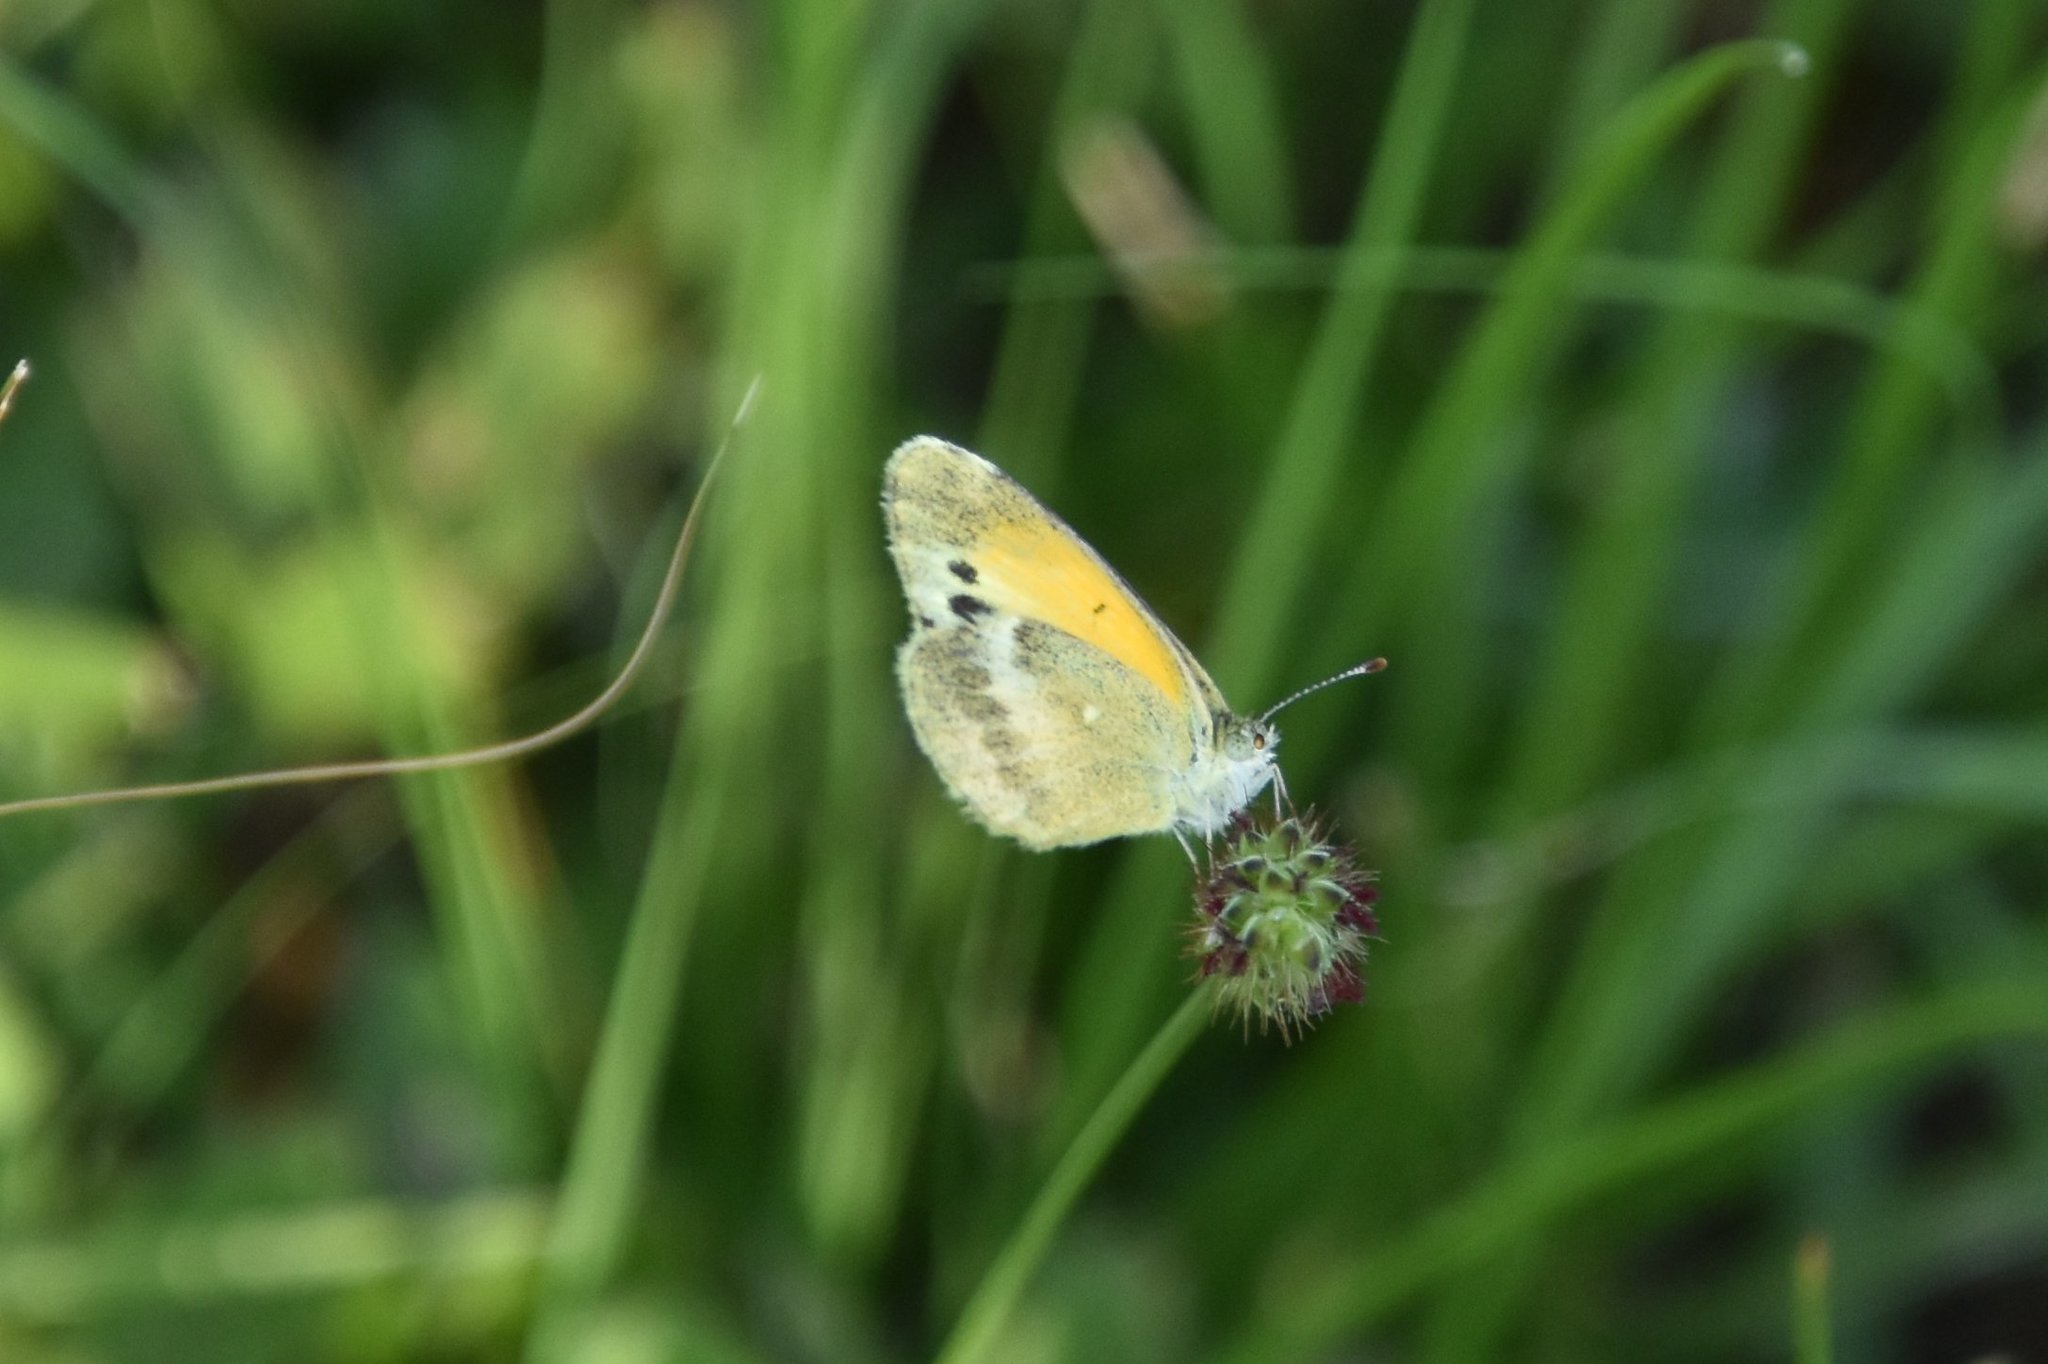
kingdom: Animalia
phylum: Arthropoda
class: Insecta
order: Lepidoptera
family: Pieridae
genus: Nathalis
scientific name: Nathalis iole
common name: Dainty sulphur
